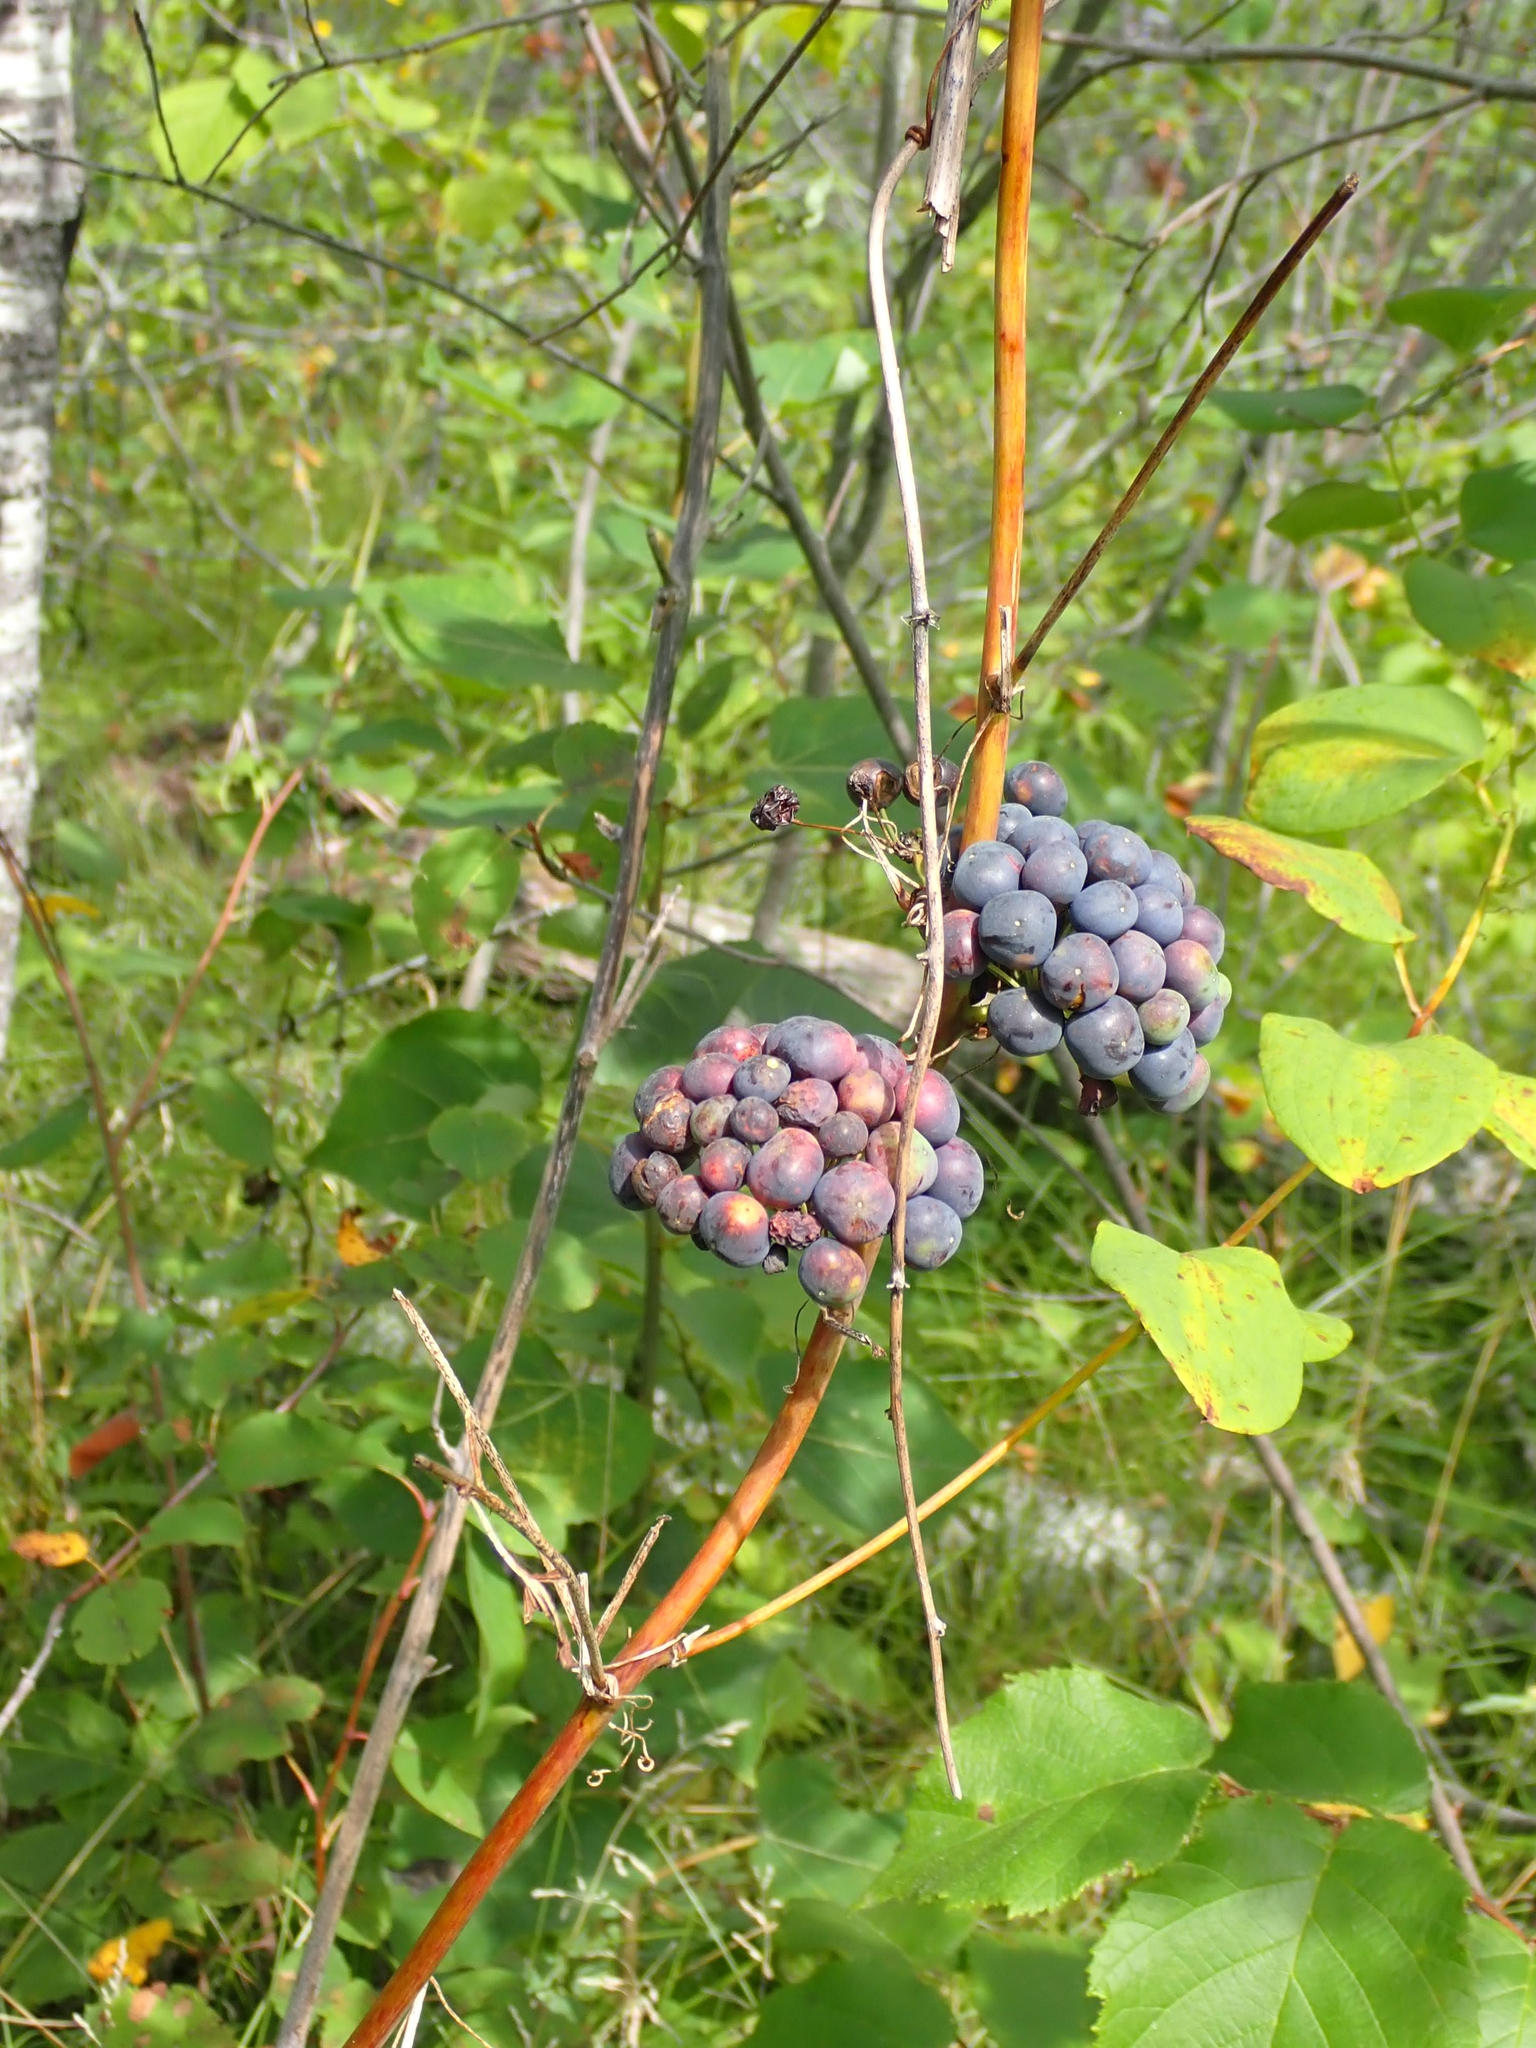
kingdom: Plantae
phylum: Tracheophyta
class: Liliopsida
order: Liliales
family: Smilacaceae
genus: Smilax
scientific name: Smilax lasioneura
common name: Blue ridge carrionflower
